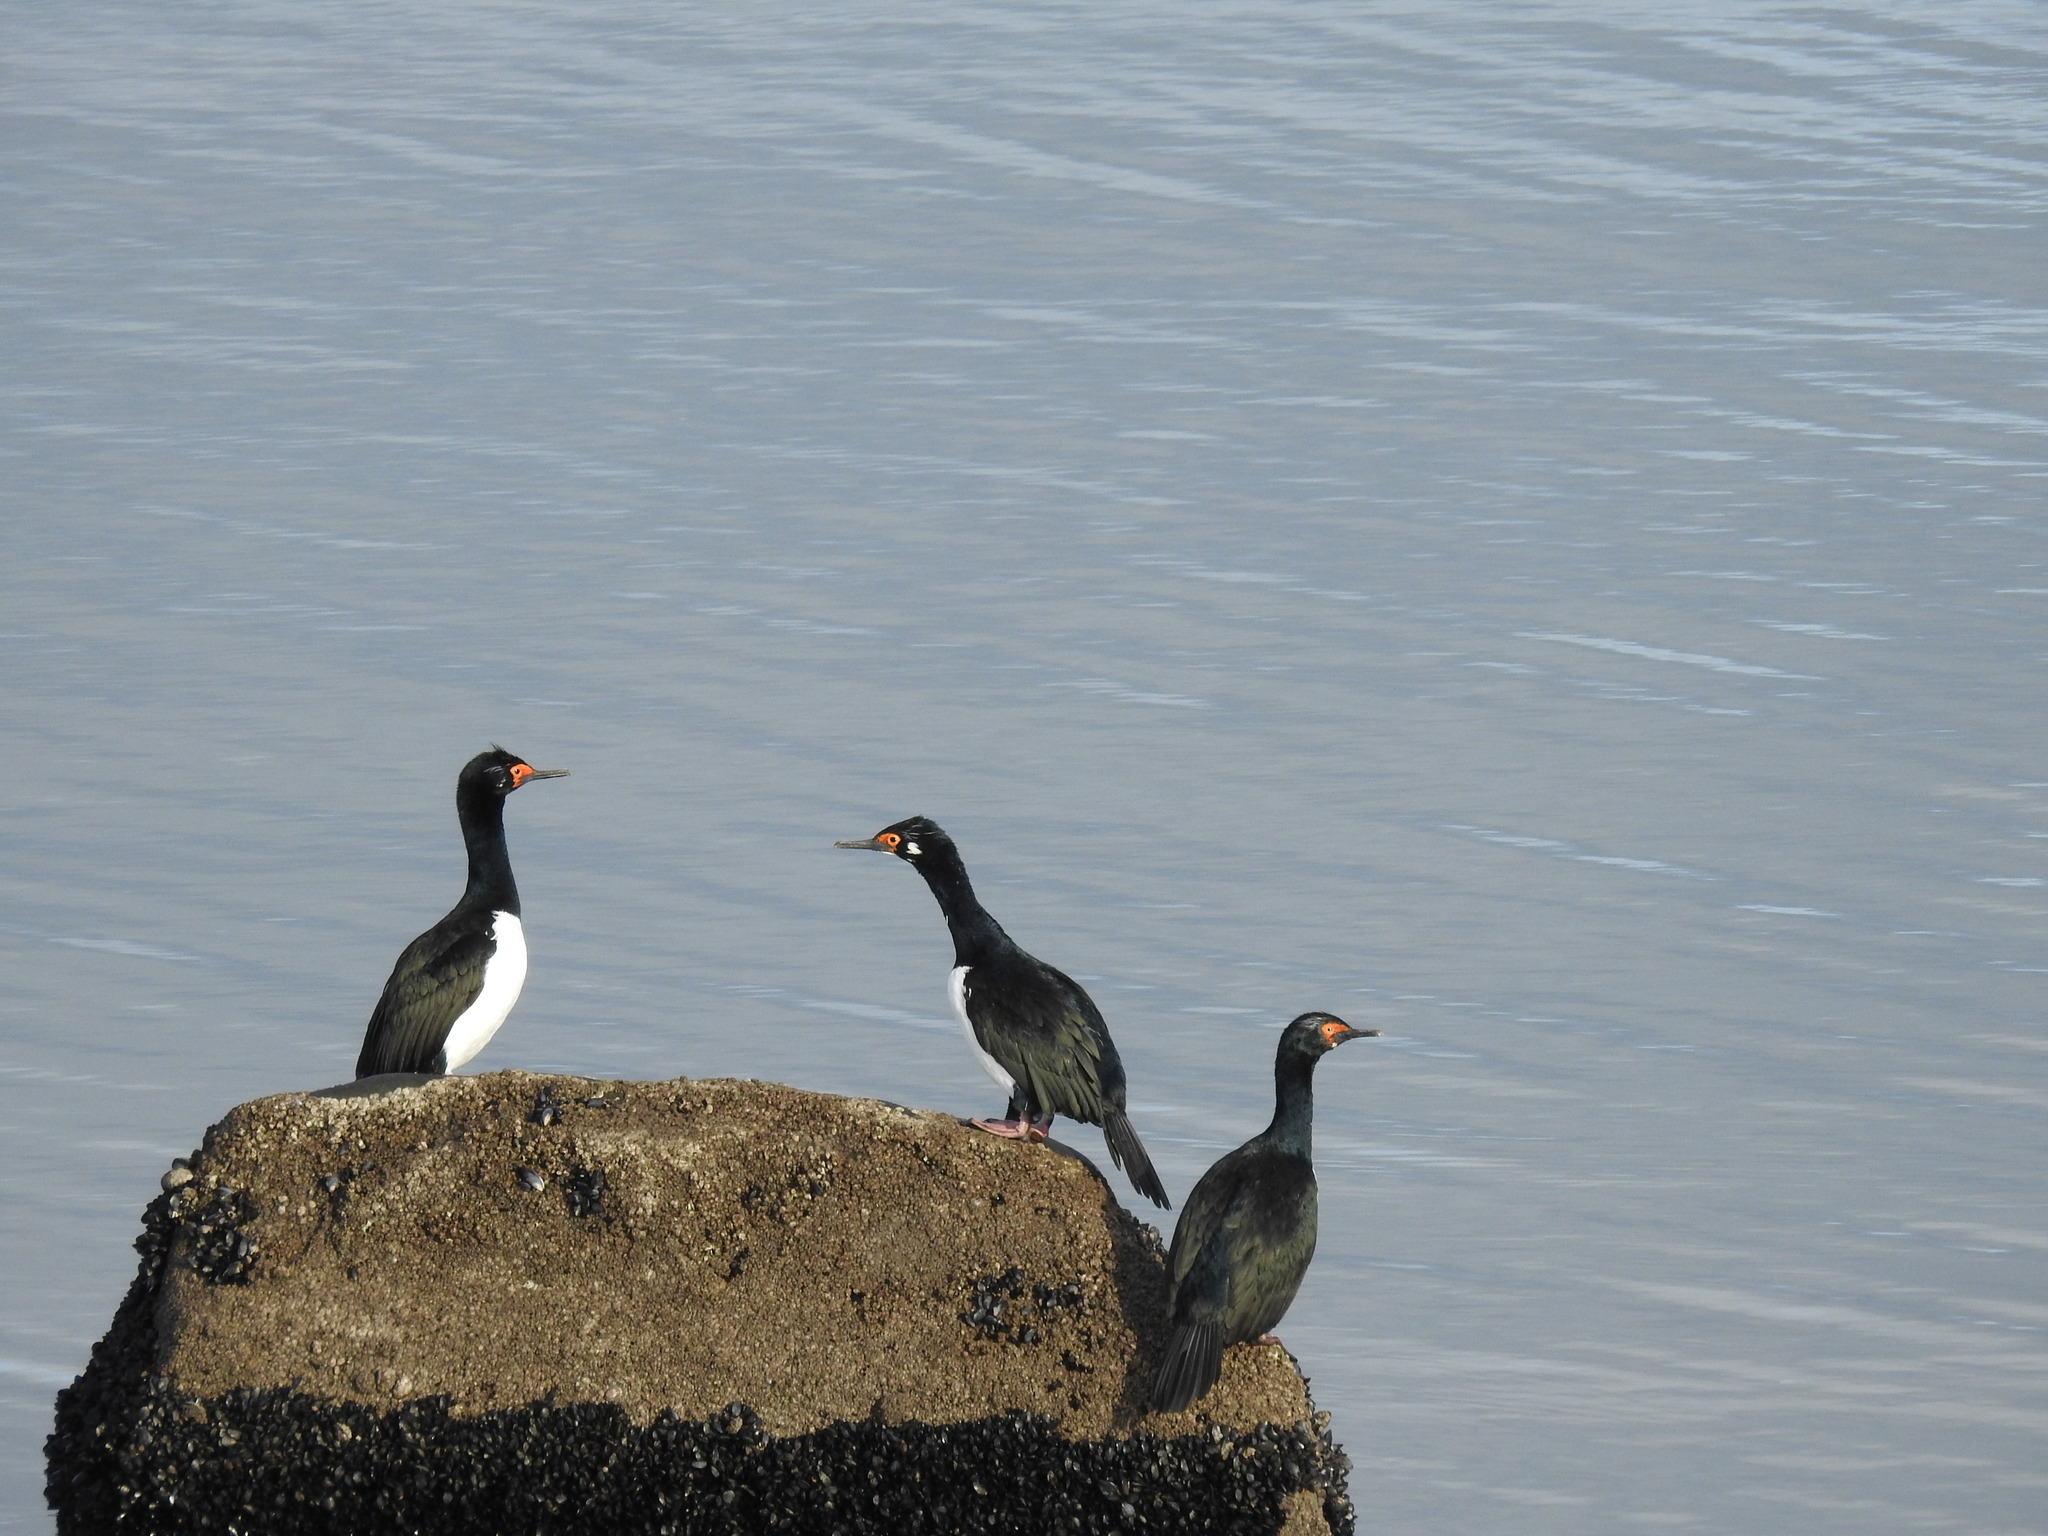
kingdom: Animalia
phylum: Chordata
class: Aves
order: Suliformes
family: Phalacrocoracidae
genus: Phalacrocorax
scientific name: Phalacrocorax magellanicus
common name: Rock shag
